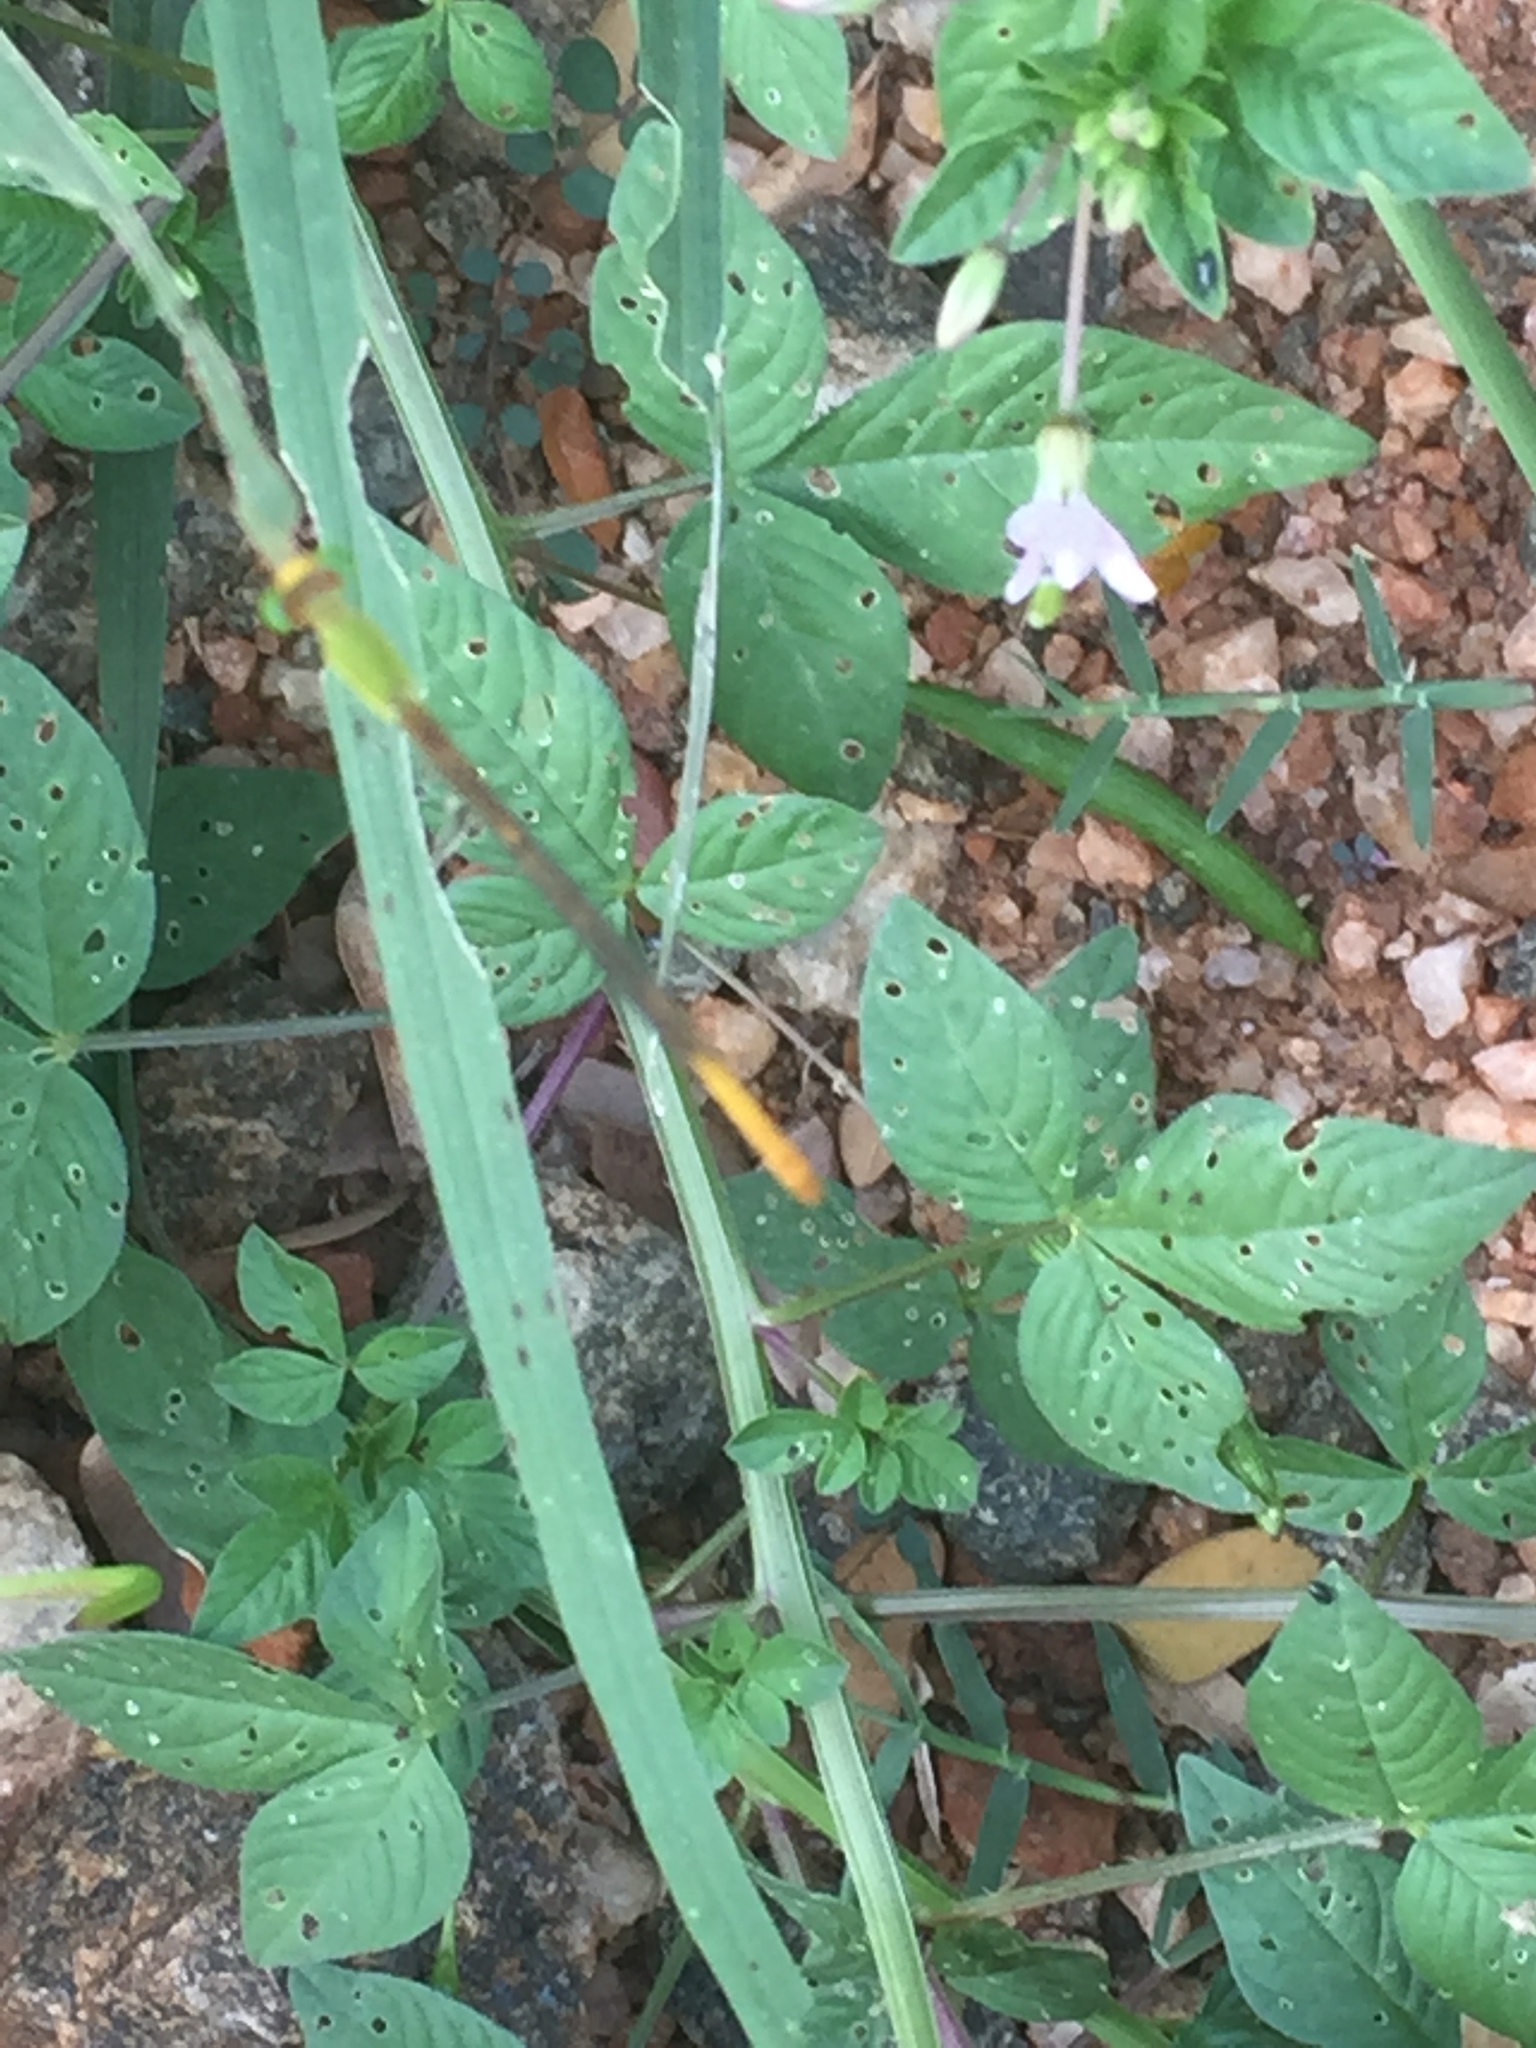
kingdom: Animalia
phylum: Arthropoda
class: Insecta
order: Odonata
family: Coenagrionidae
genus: Ceriagrion
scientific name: Ceriagrion coromandelianum
